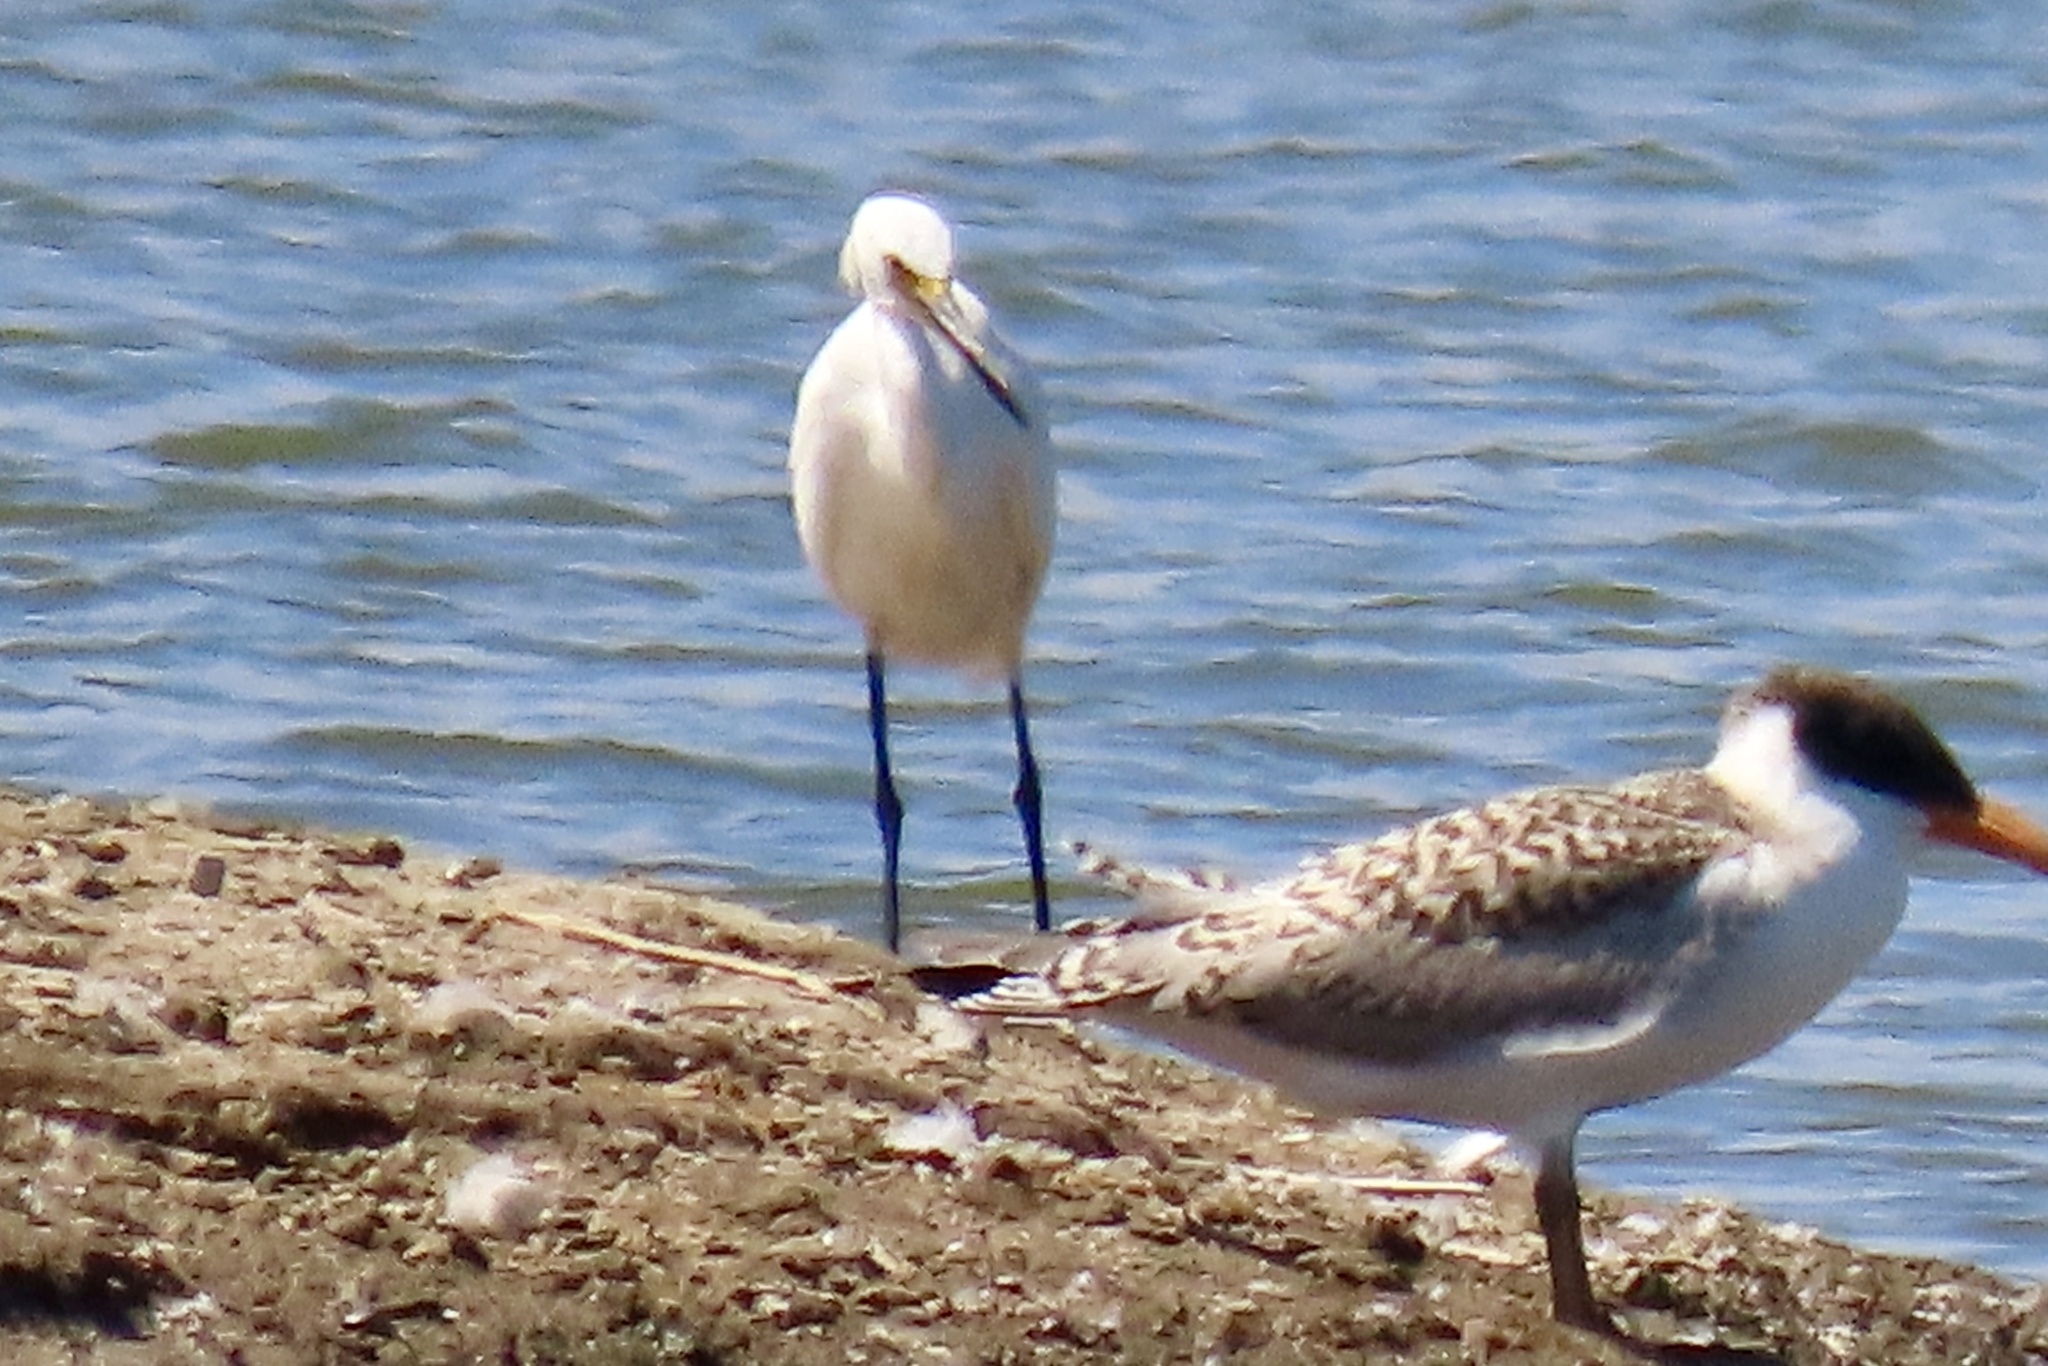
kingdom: Animalia
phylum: Chordata
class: Aves
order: Pelecaniformes
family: Ardeidae
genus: Egretta
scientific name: Egretta thula
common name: Snowy egret
